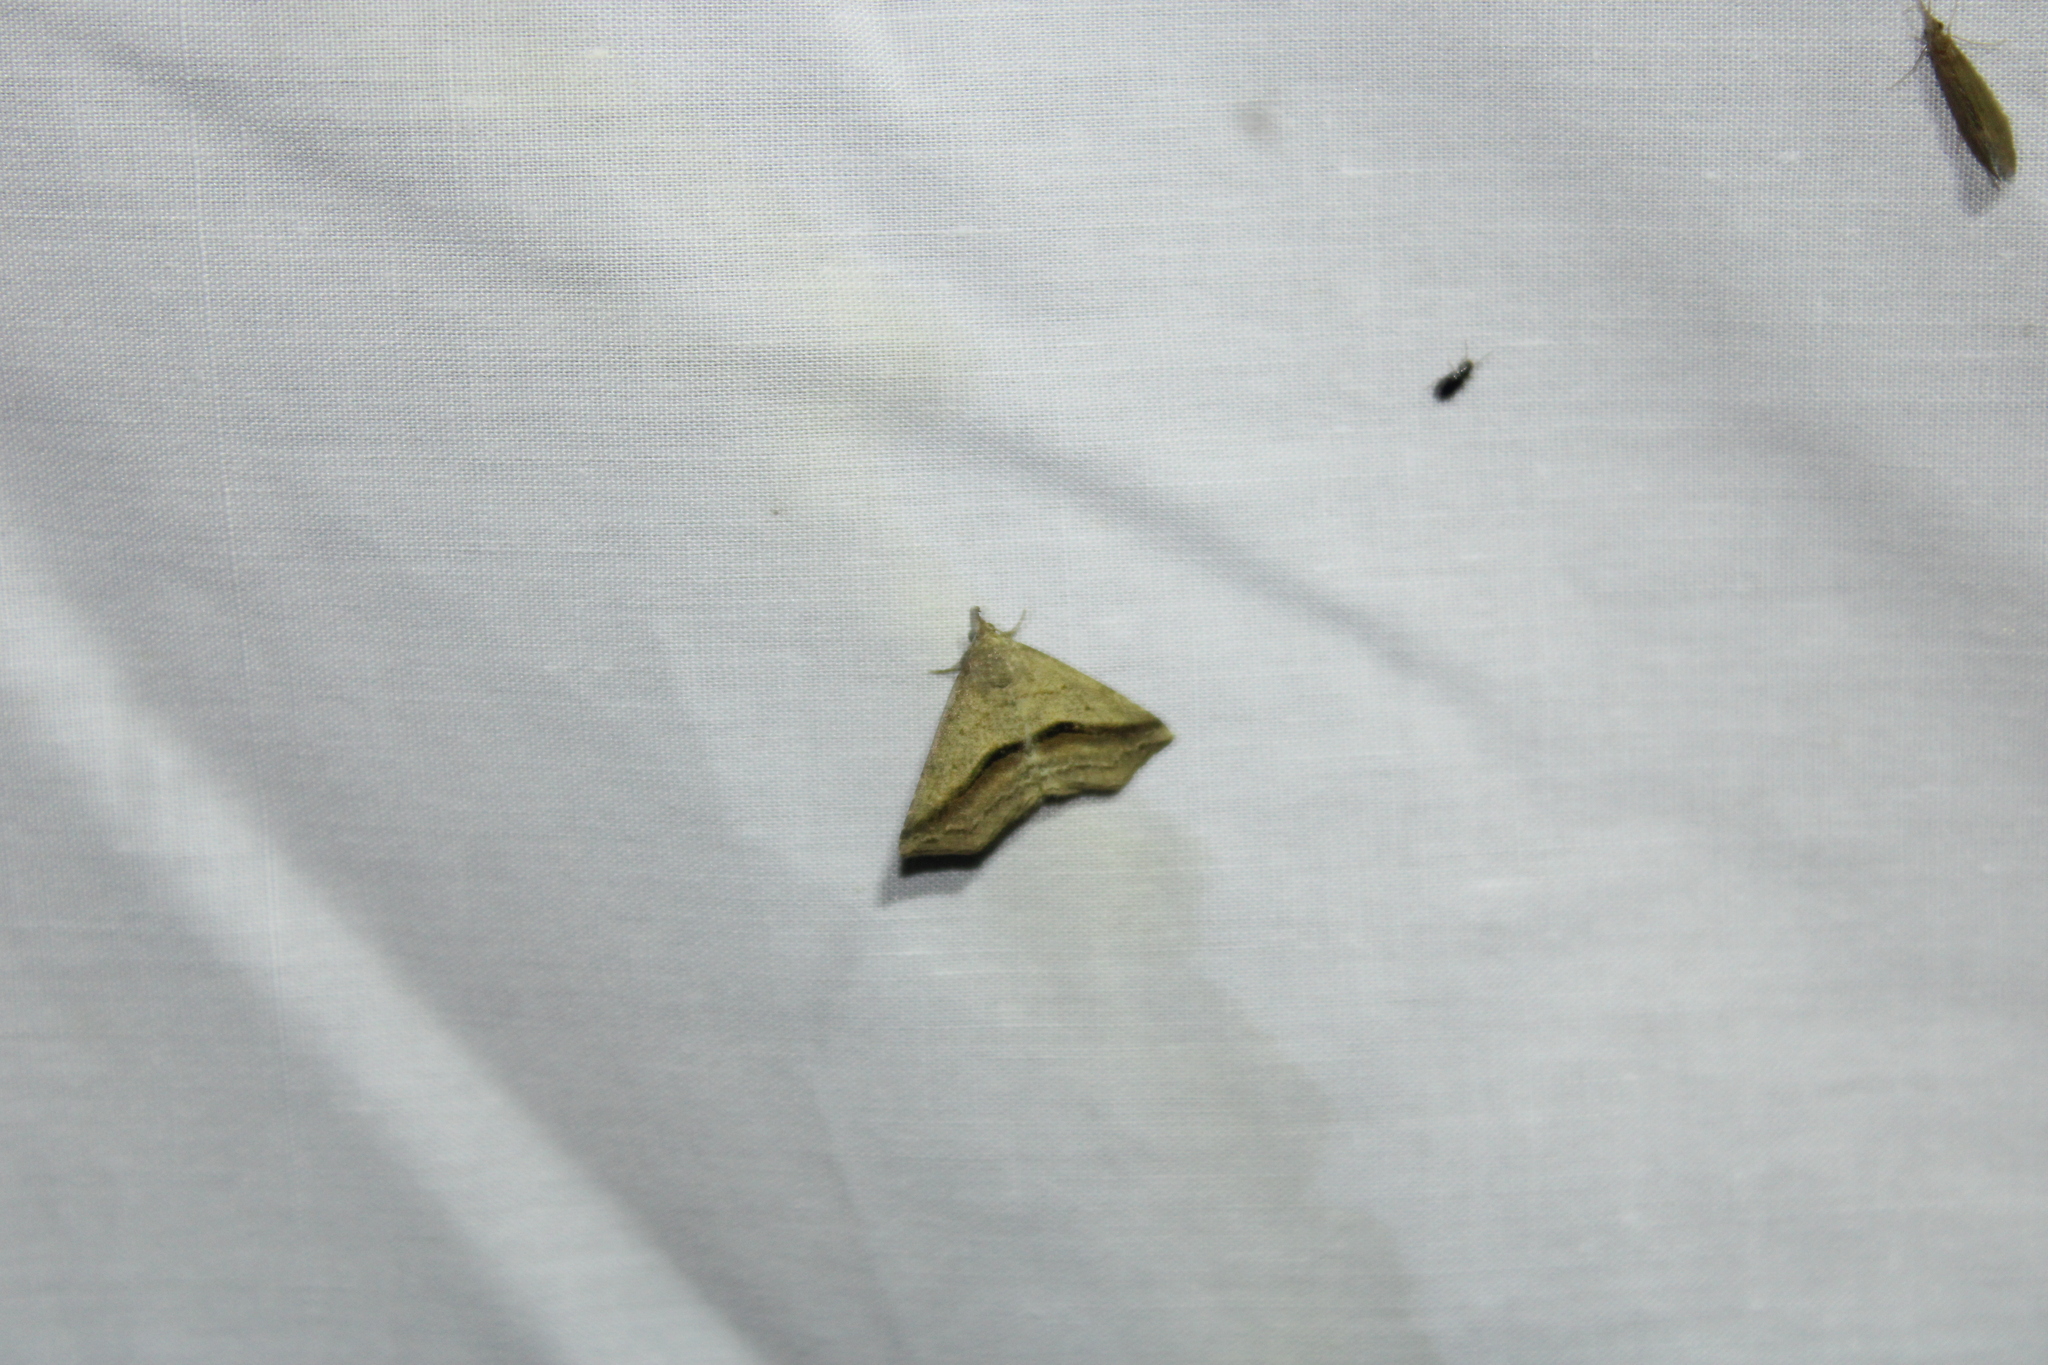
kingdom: Animalia
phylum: Arthropoda
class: Insecta
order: Lepidoptera
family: Erebidae
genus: Spargaloma
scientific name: Spargaloma perditalis
